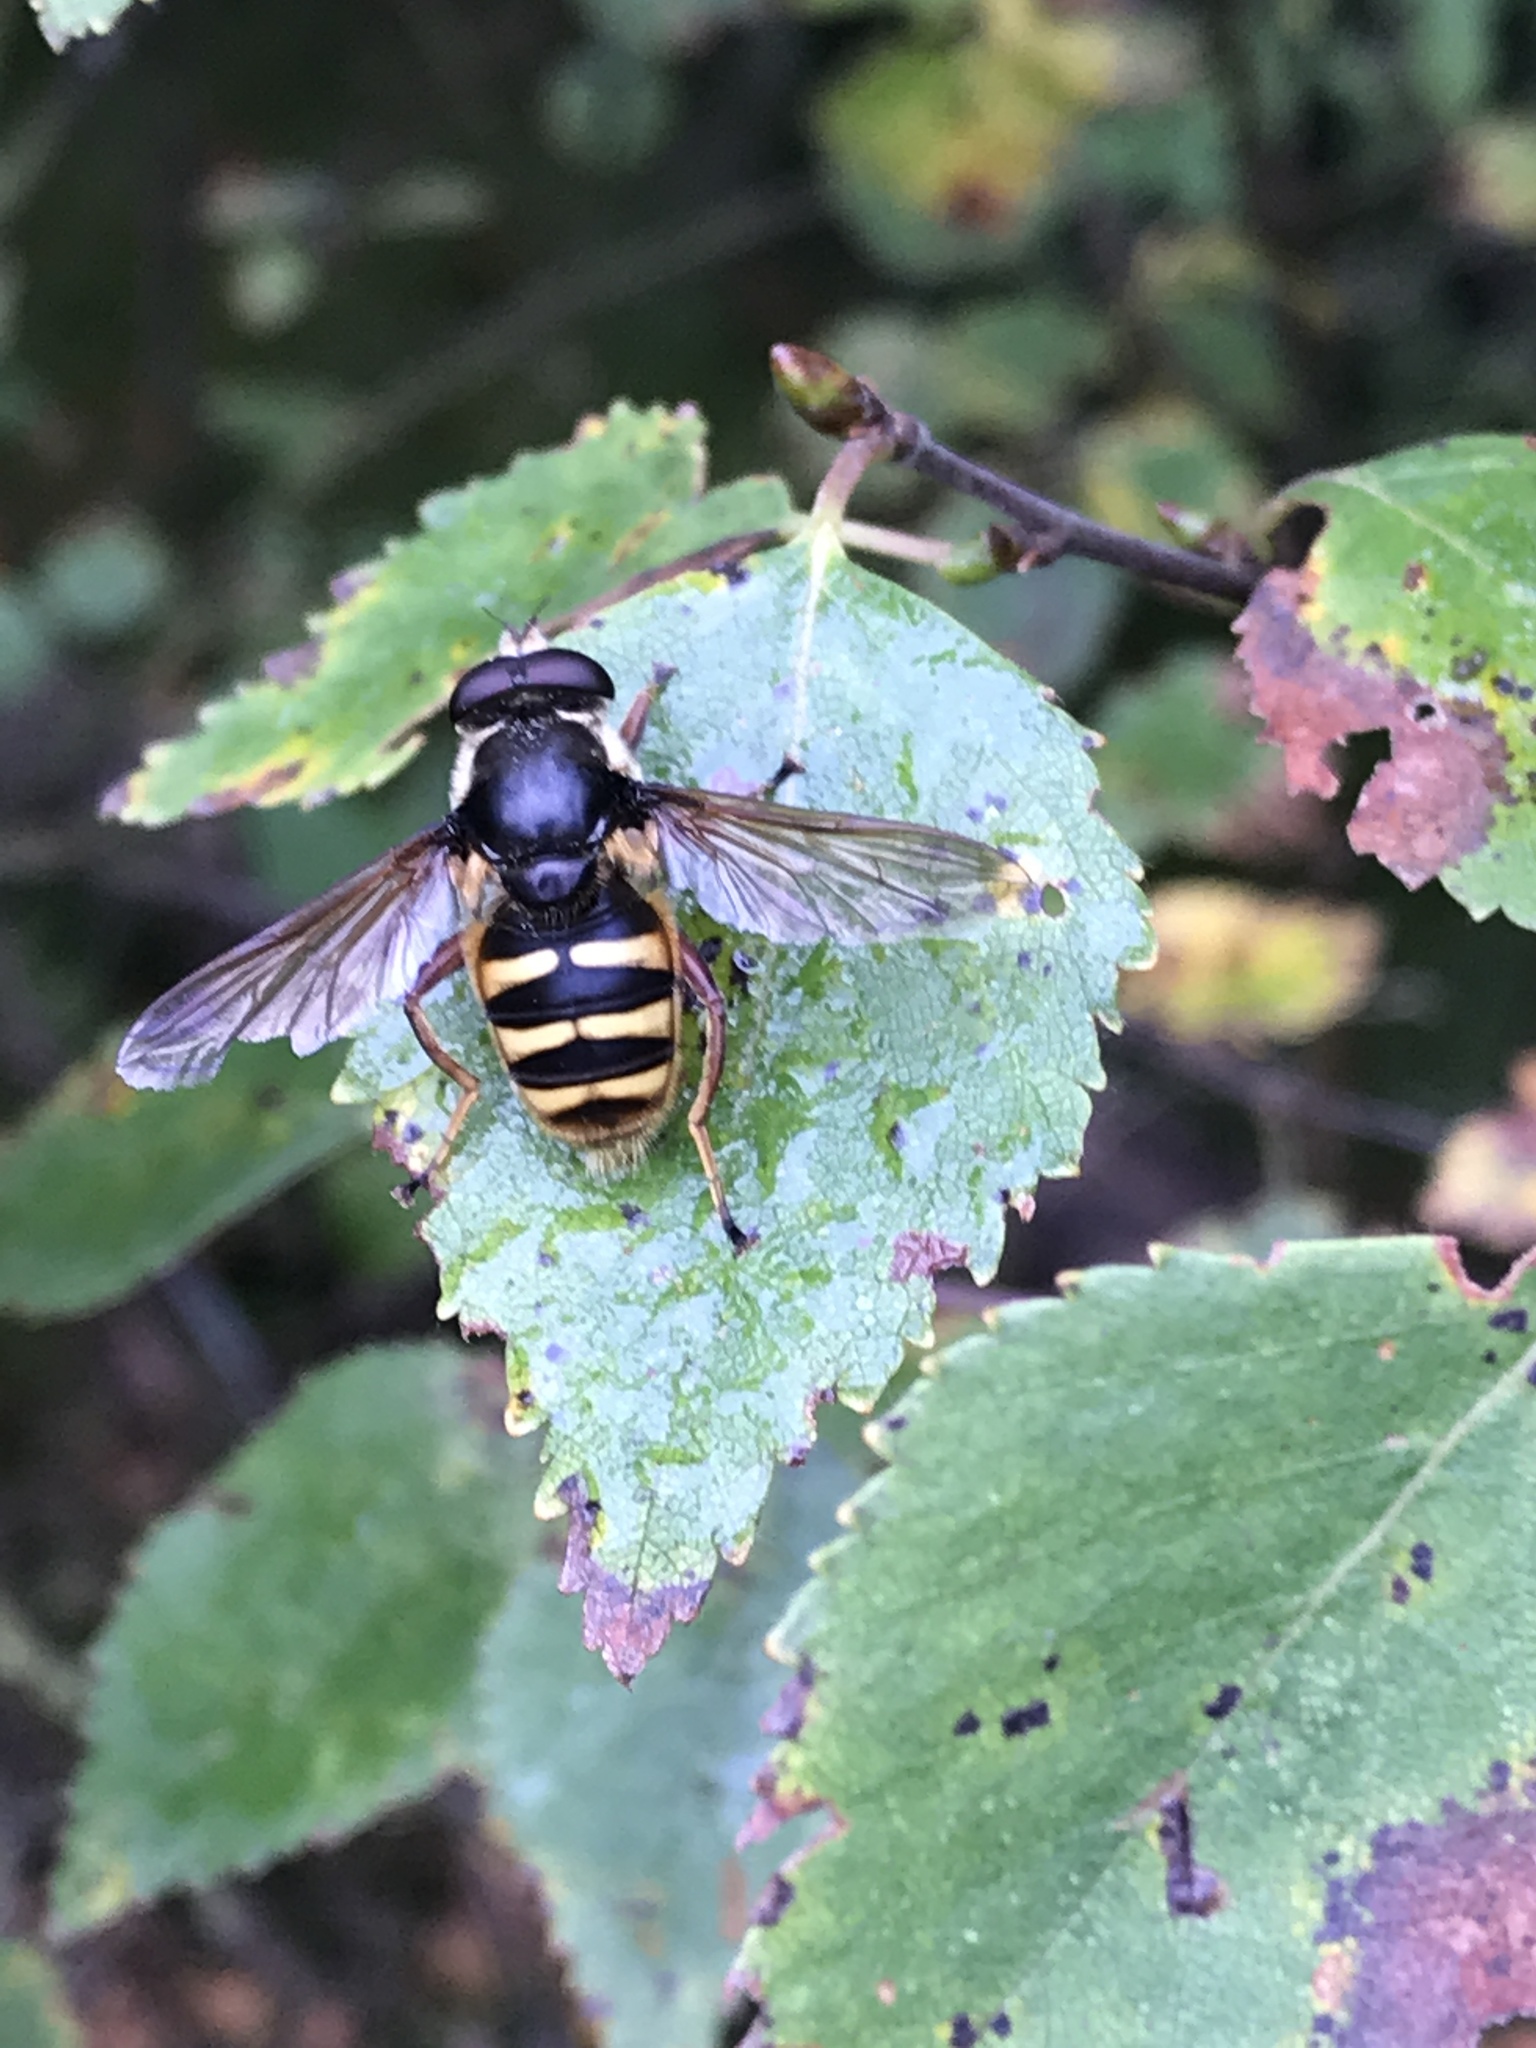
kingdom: Animalia
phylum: Arthropoda
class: Insecta
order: Diptera
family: Syrphidae
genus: Sericomyia
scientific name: Sericomyia silentis
